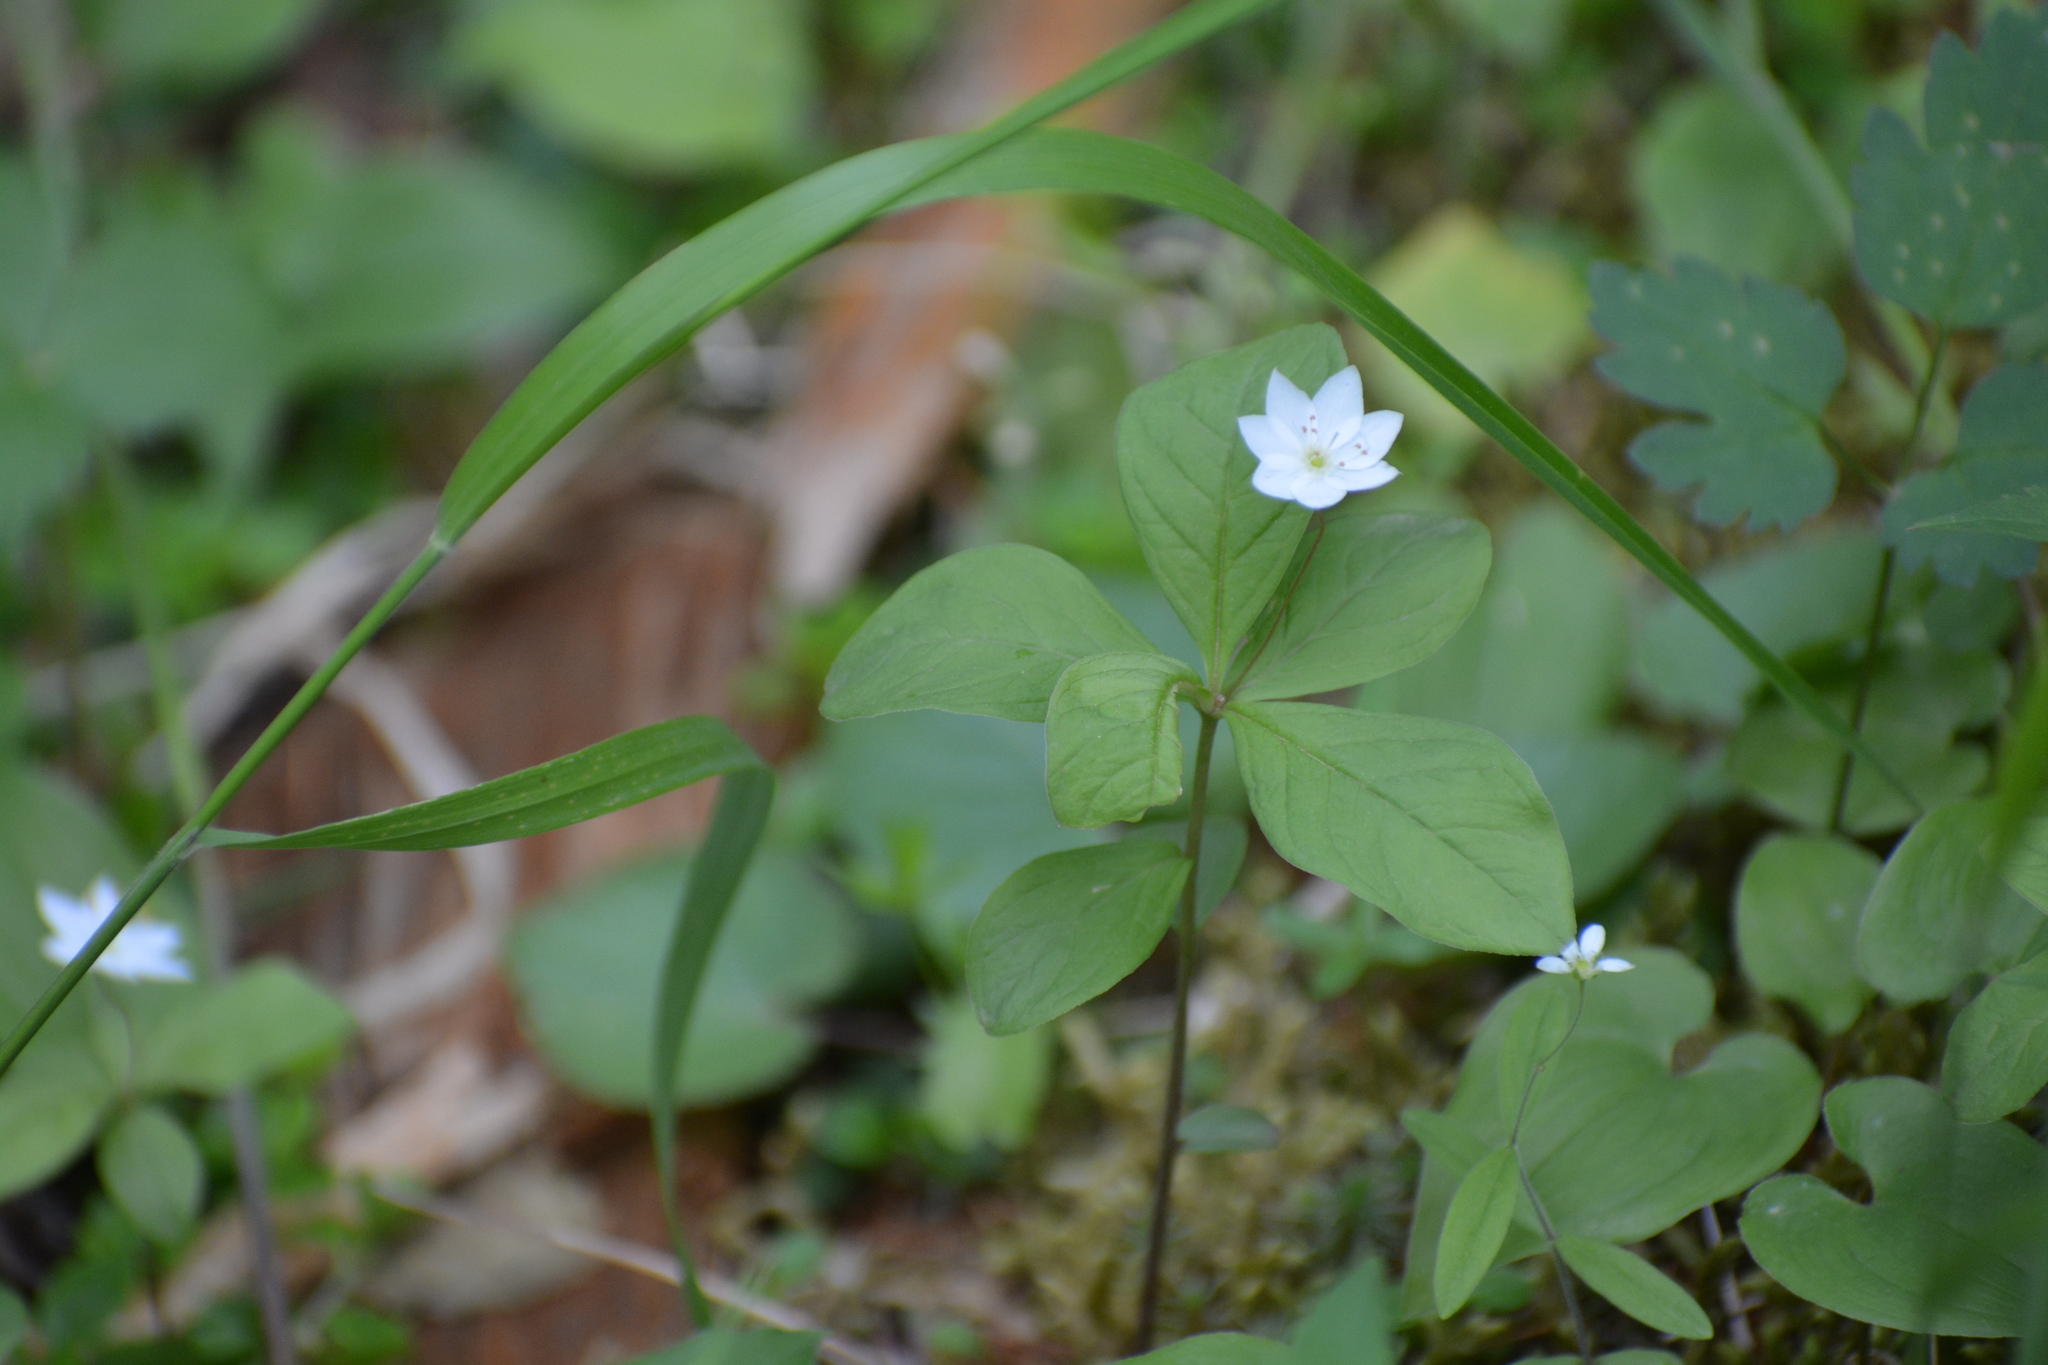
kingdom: Plantae
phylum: Tracheophyta
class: Magnoliopsida
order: Ericales
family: Primulaceae
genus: Lysimachia
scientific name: Lysimachia europaea
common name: Arctic starflower
